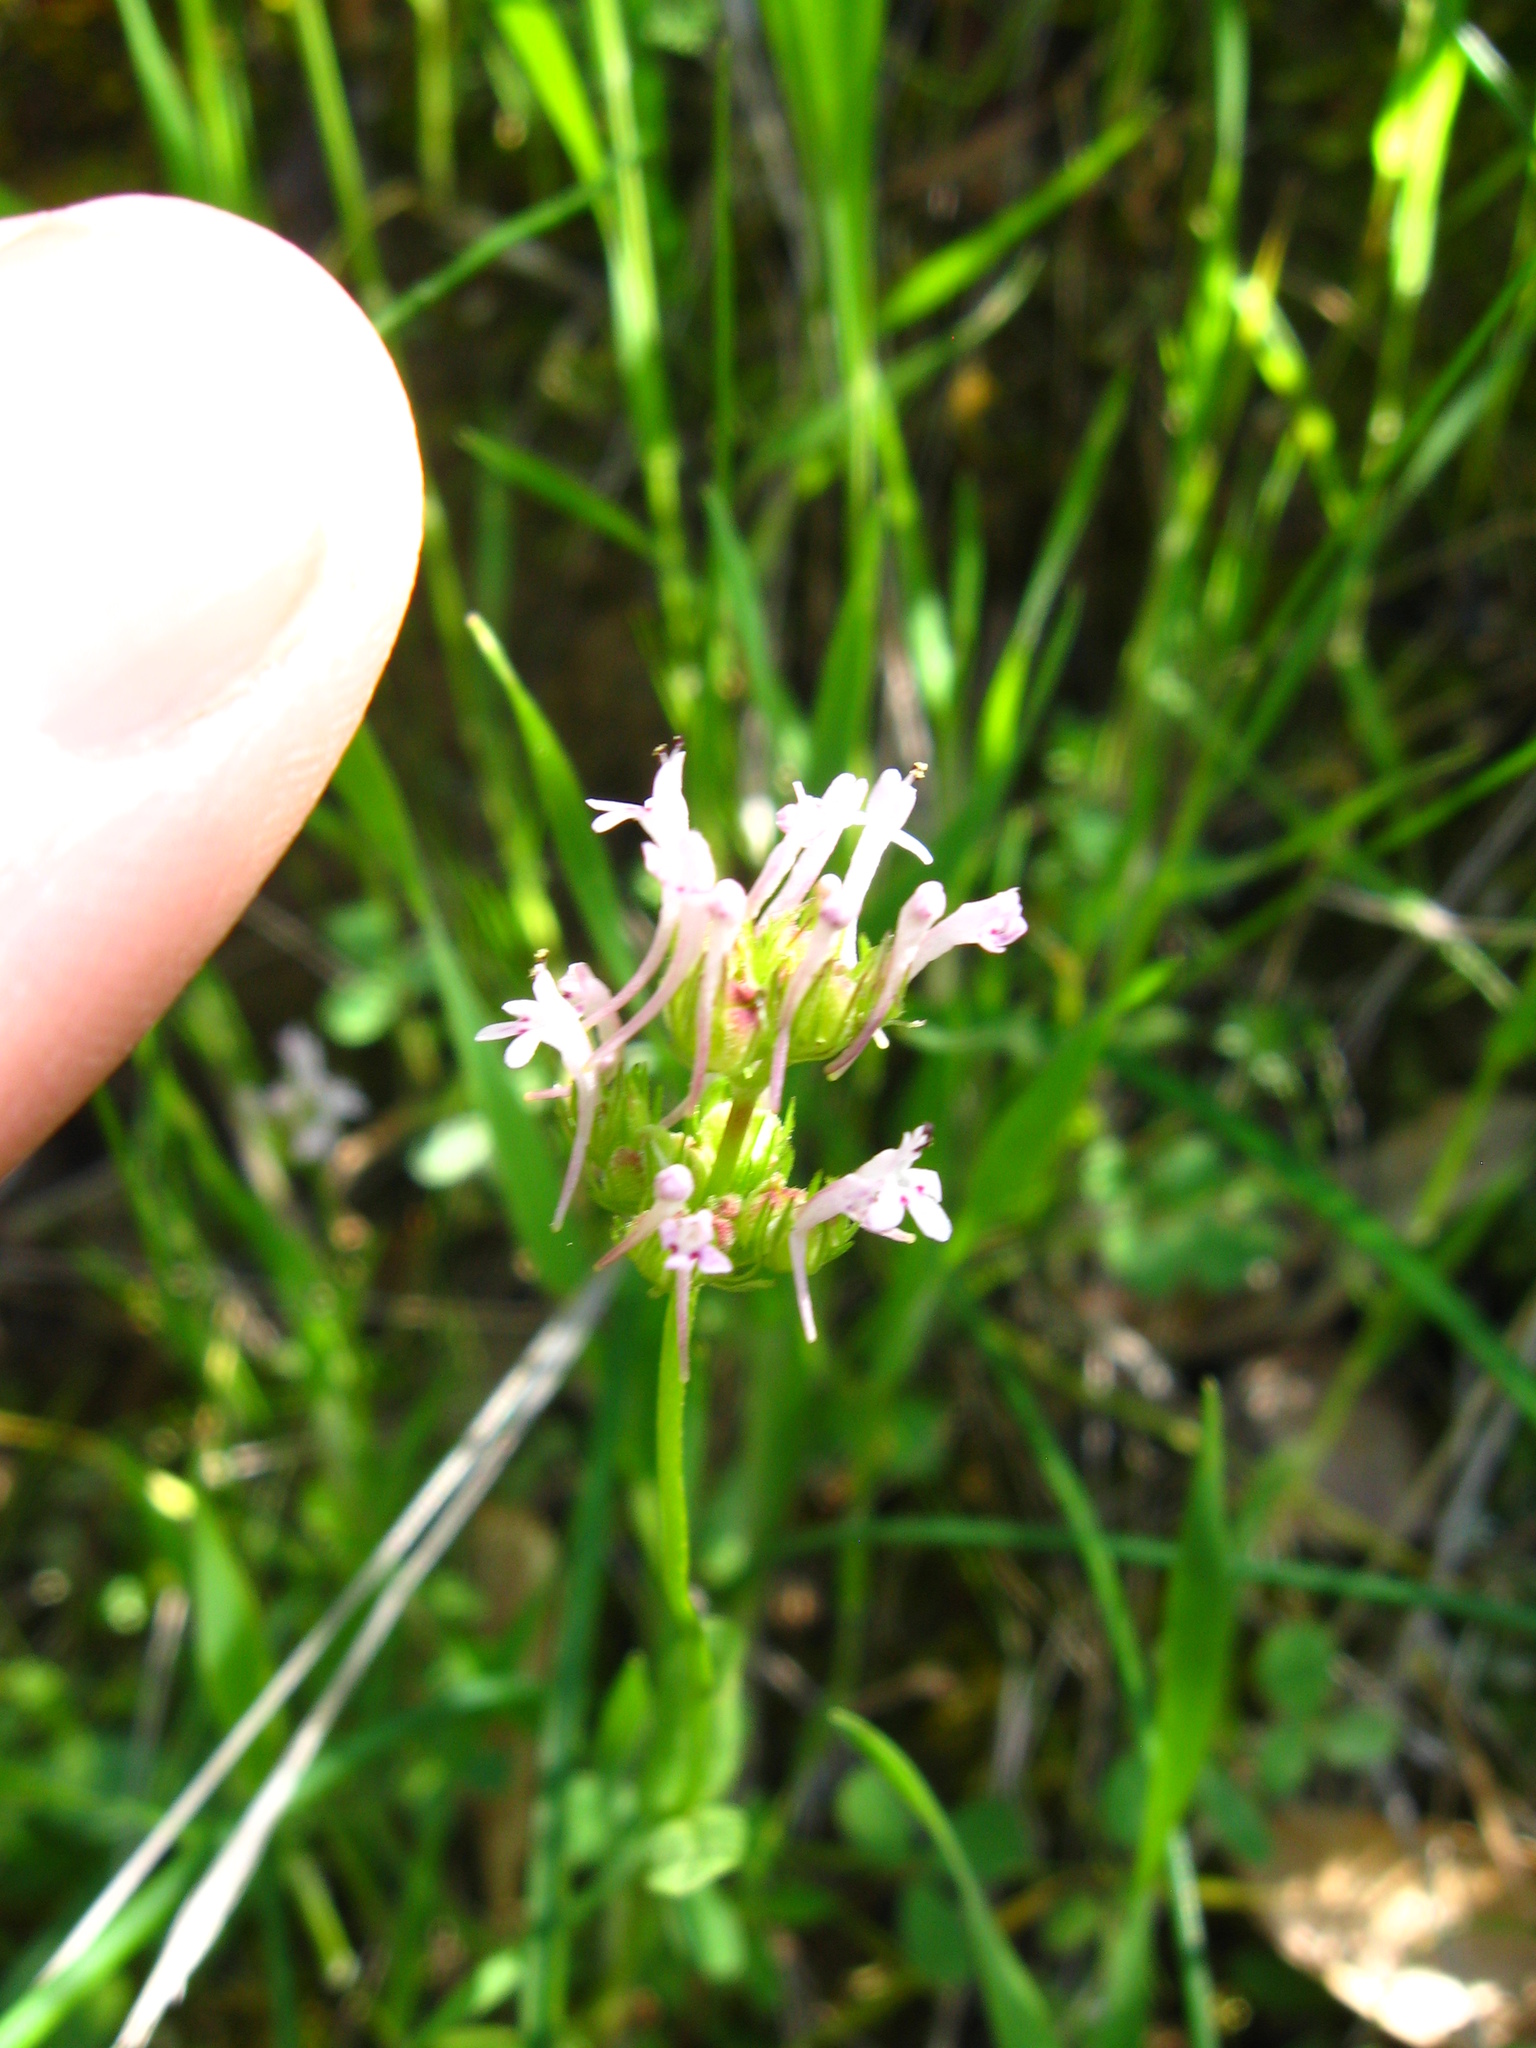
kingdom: Plantae
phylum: Tracheophyta
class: Magnoliopsida
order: Dipsacales
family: Caprifoliaceae
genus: Plectritis
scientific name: Plectritis ciliosa
